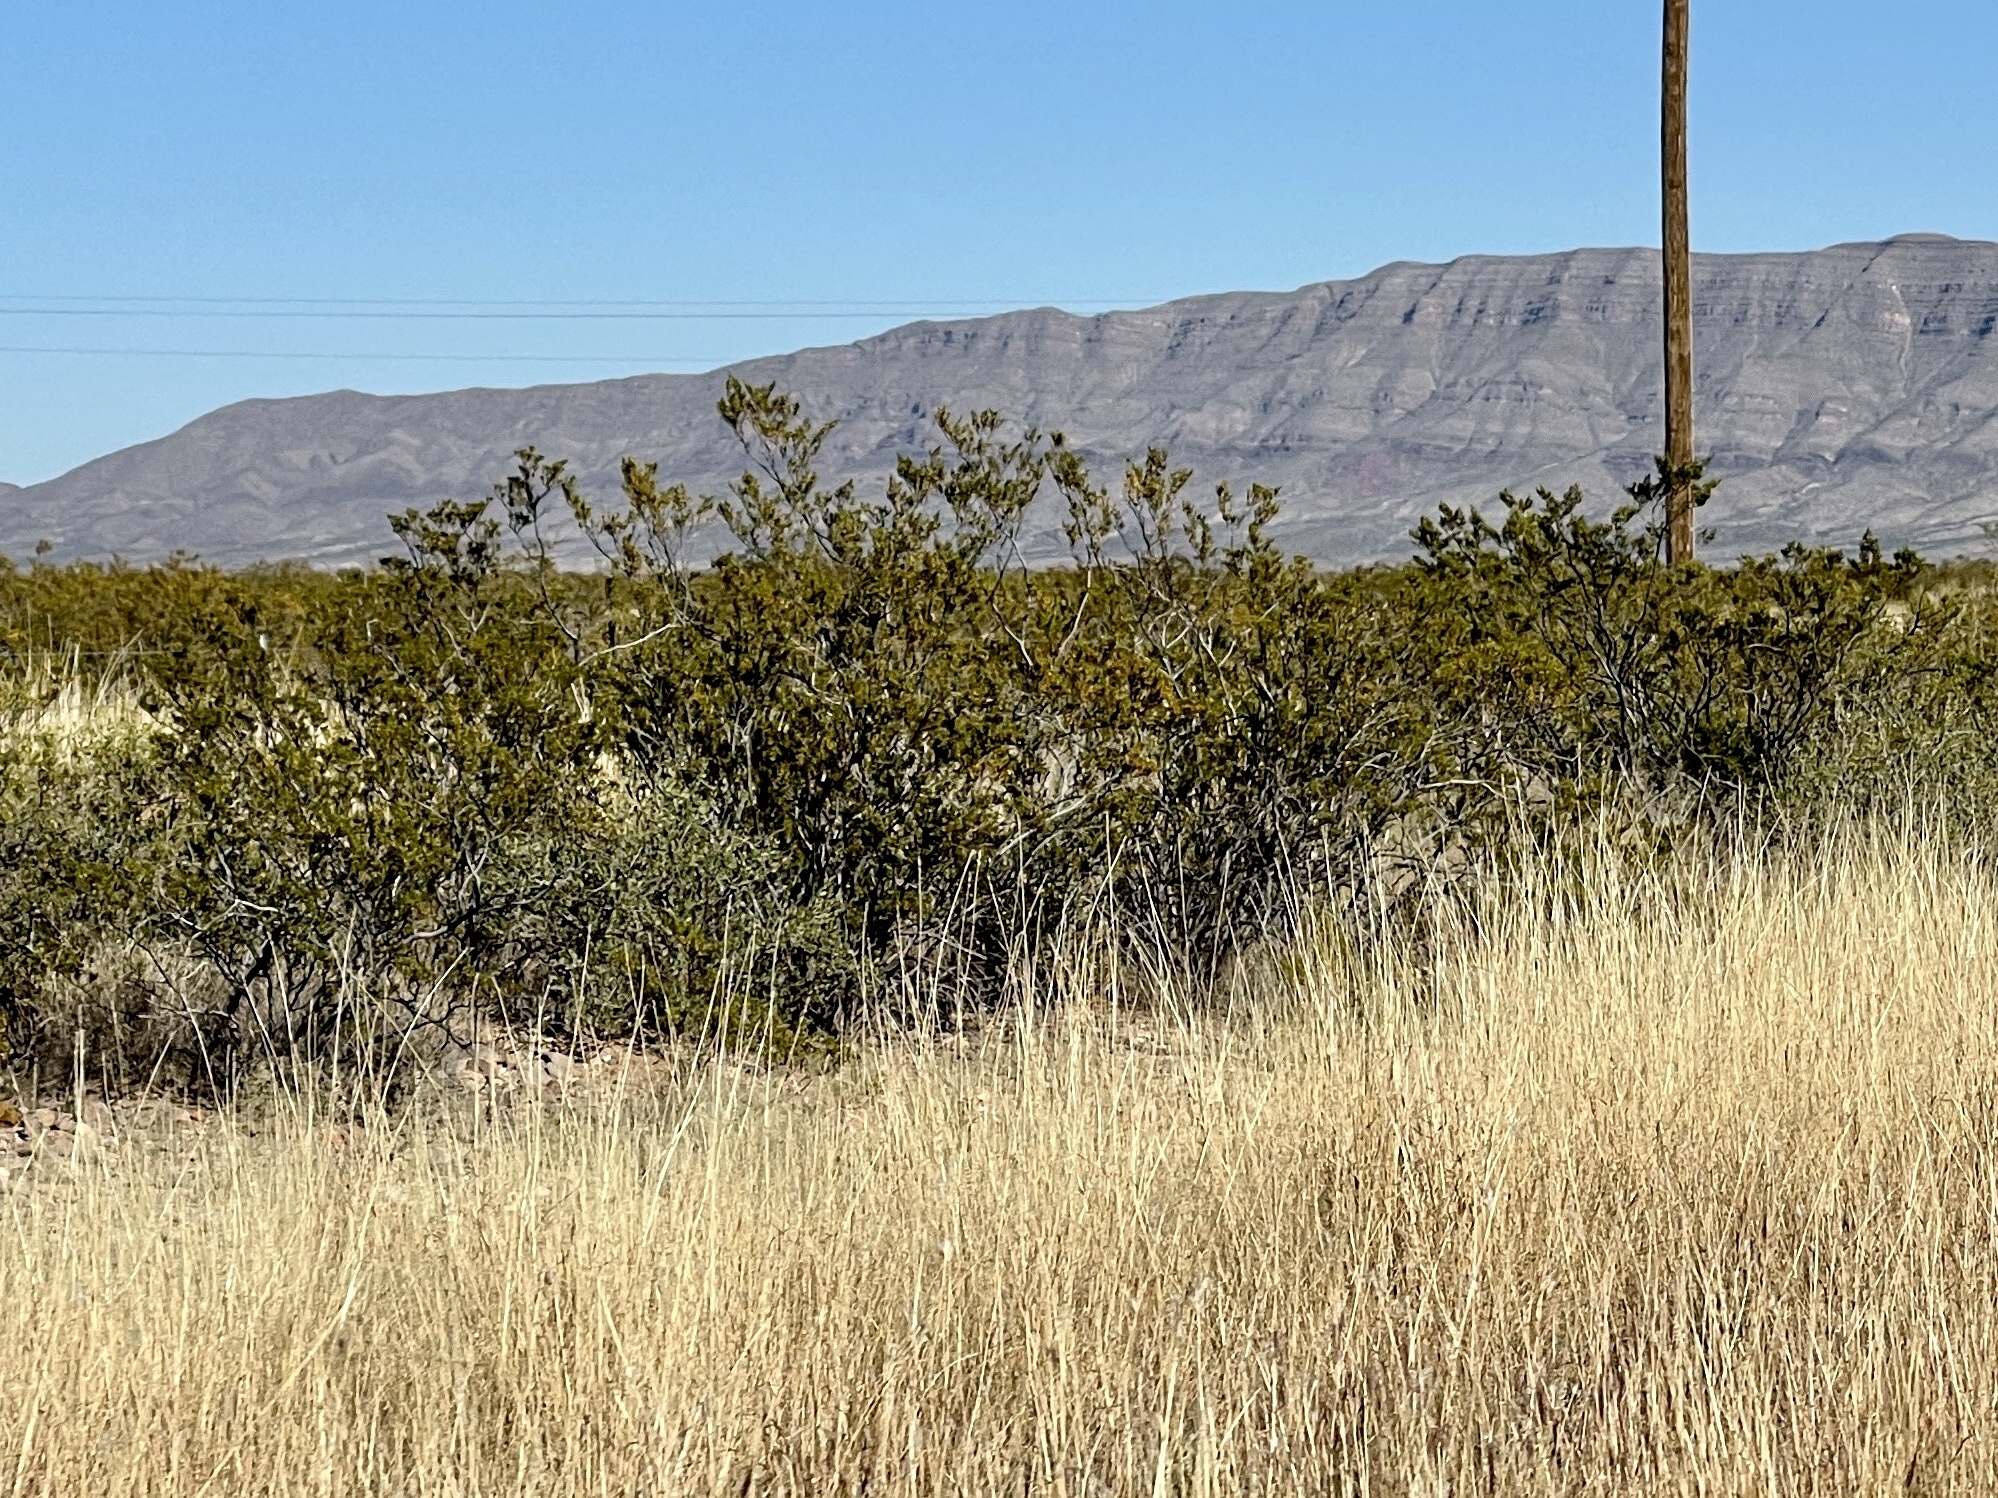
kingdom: Plantae
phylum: Tracheophyta
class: Magnoliopsida
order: Zygophyllales
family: Zygophyllaceae
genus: Larrea
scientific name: Larrea tridentata
